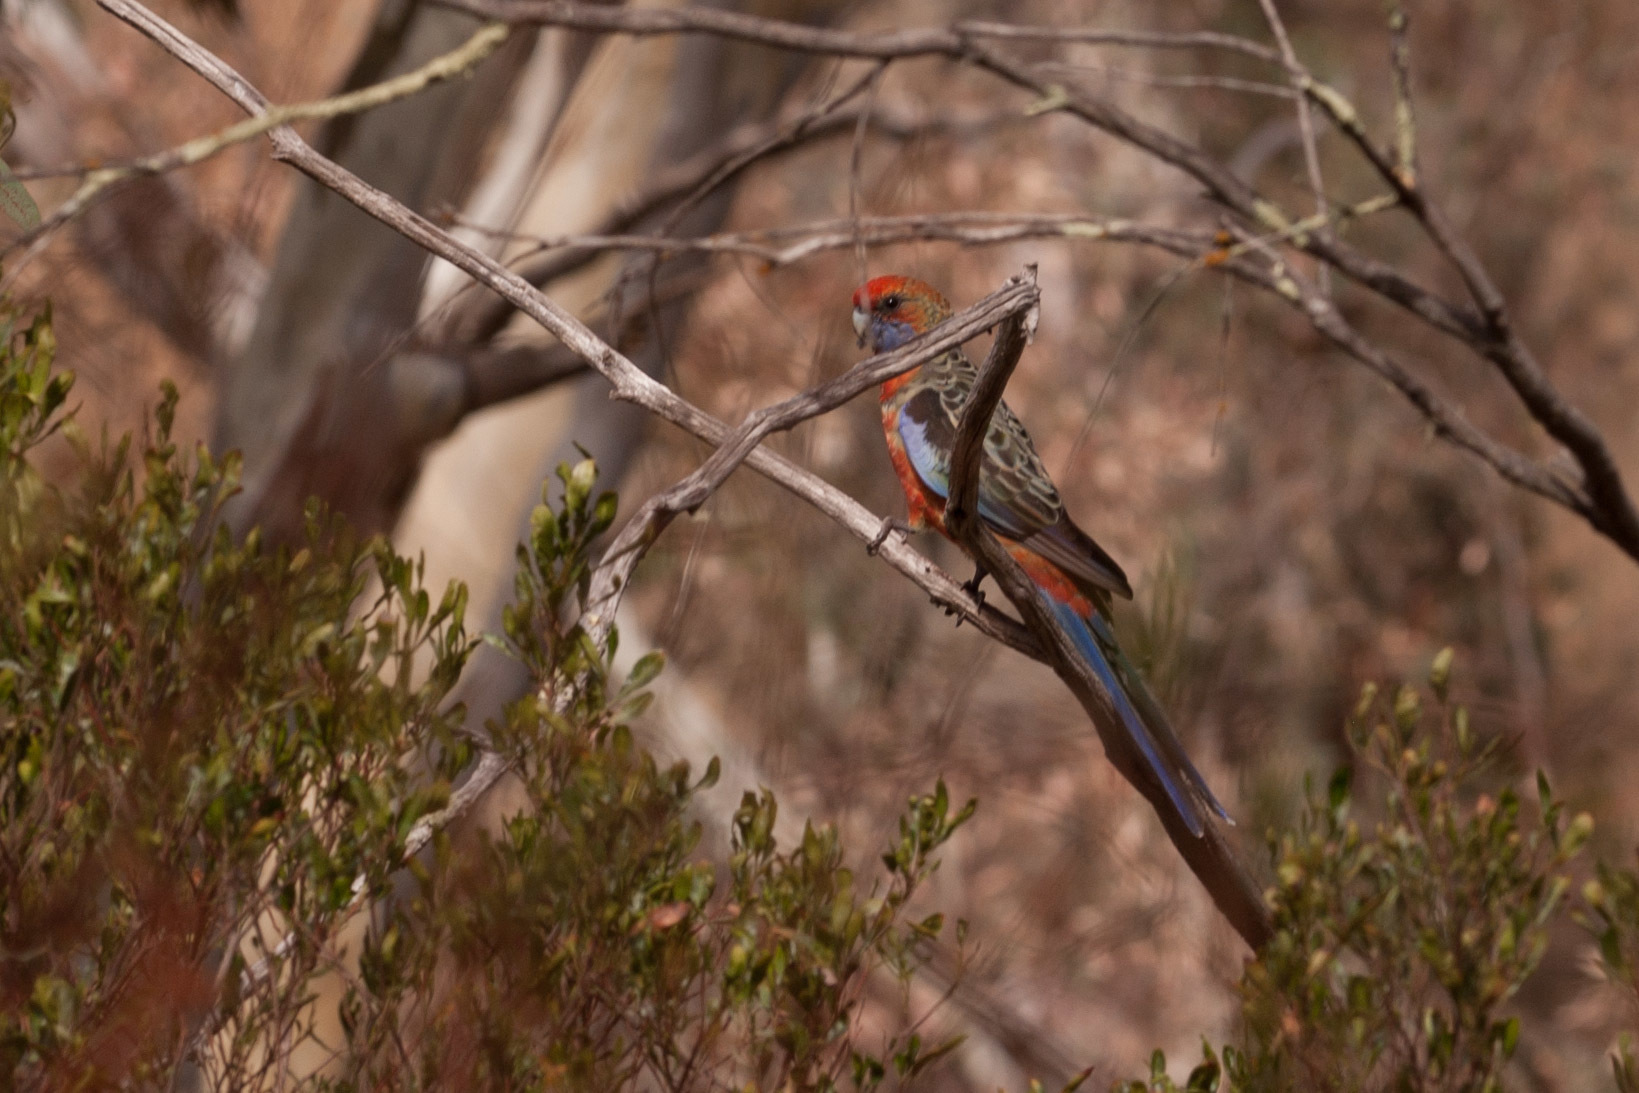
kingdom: Animalia
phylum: Chordata
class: Aves
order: Psittaciformes
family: Psittacidae
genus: Platycercus
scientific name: Platycercus elegans
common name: Crimson rosella
